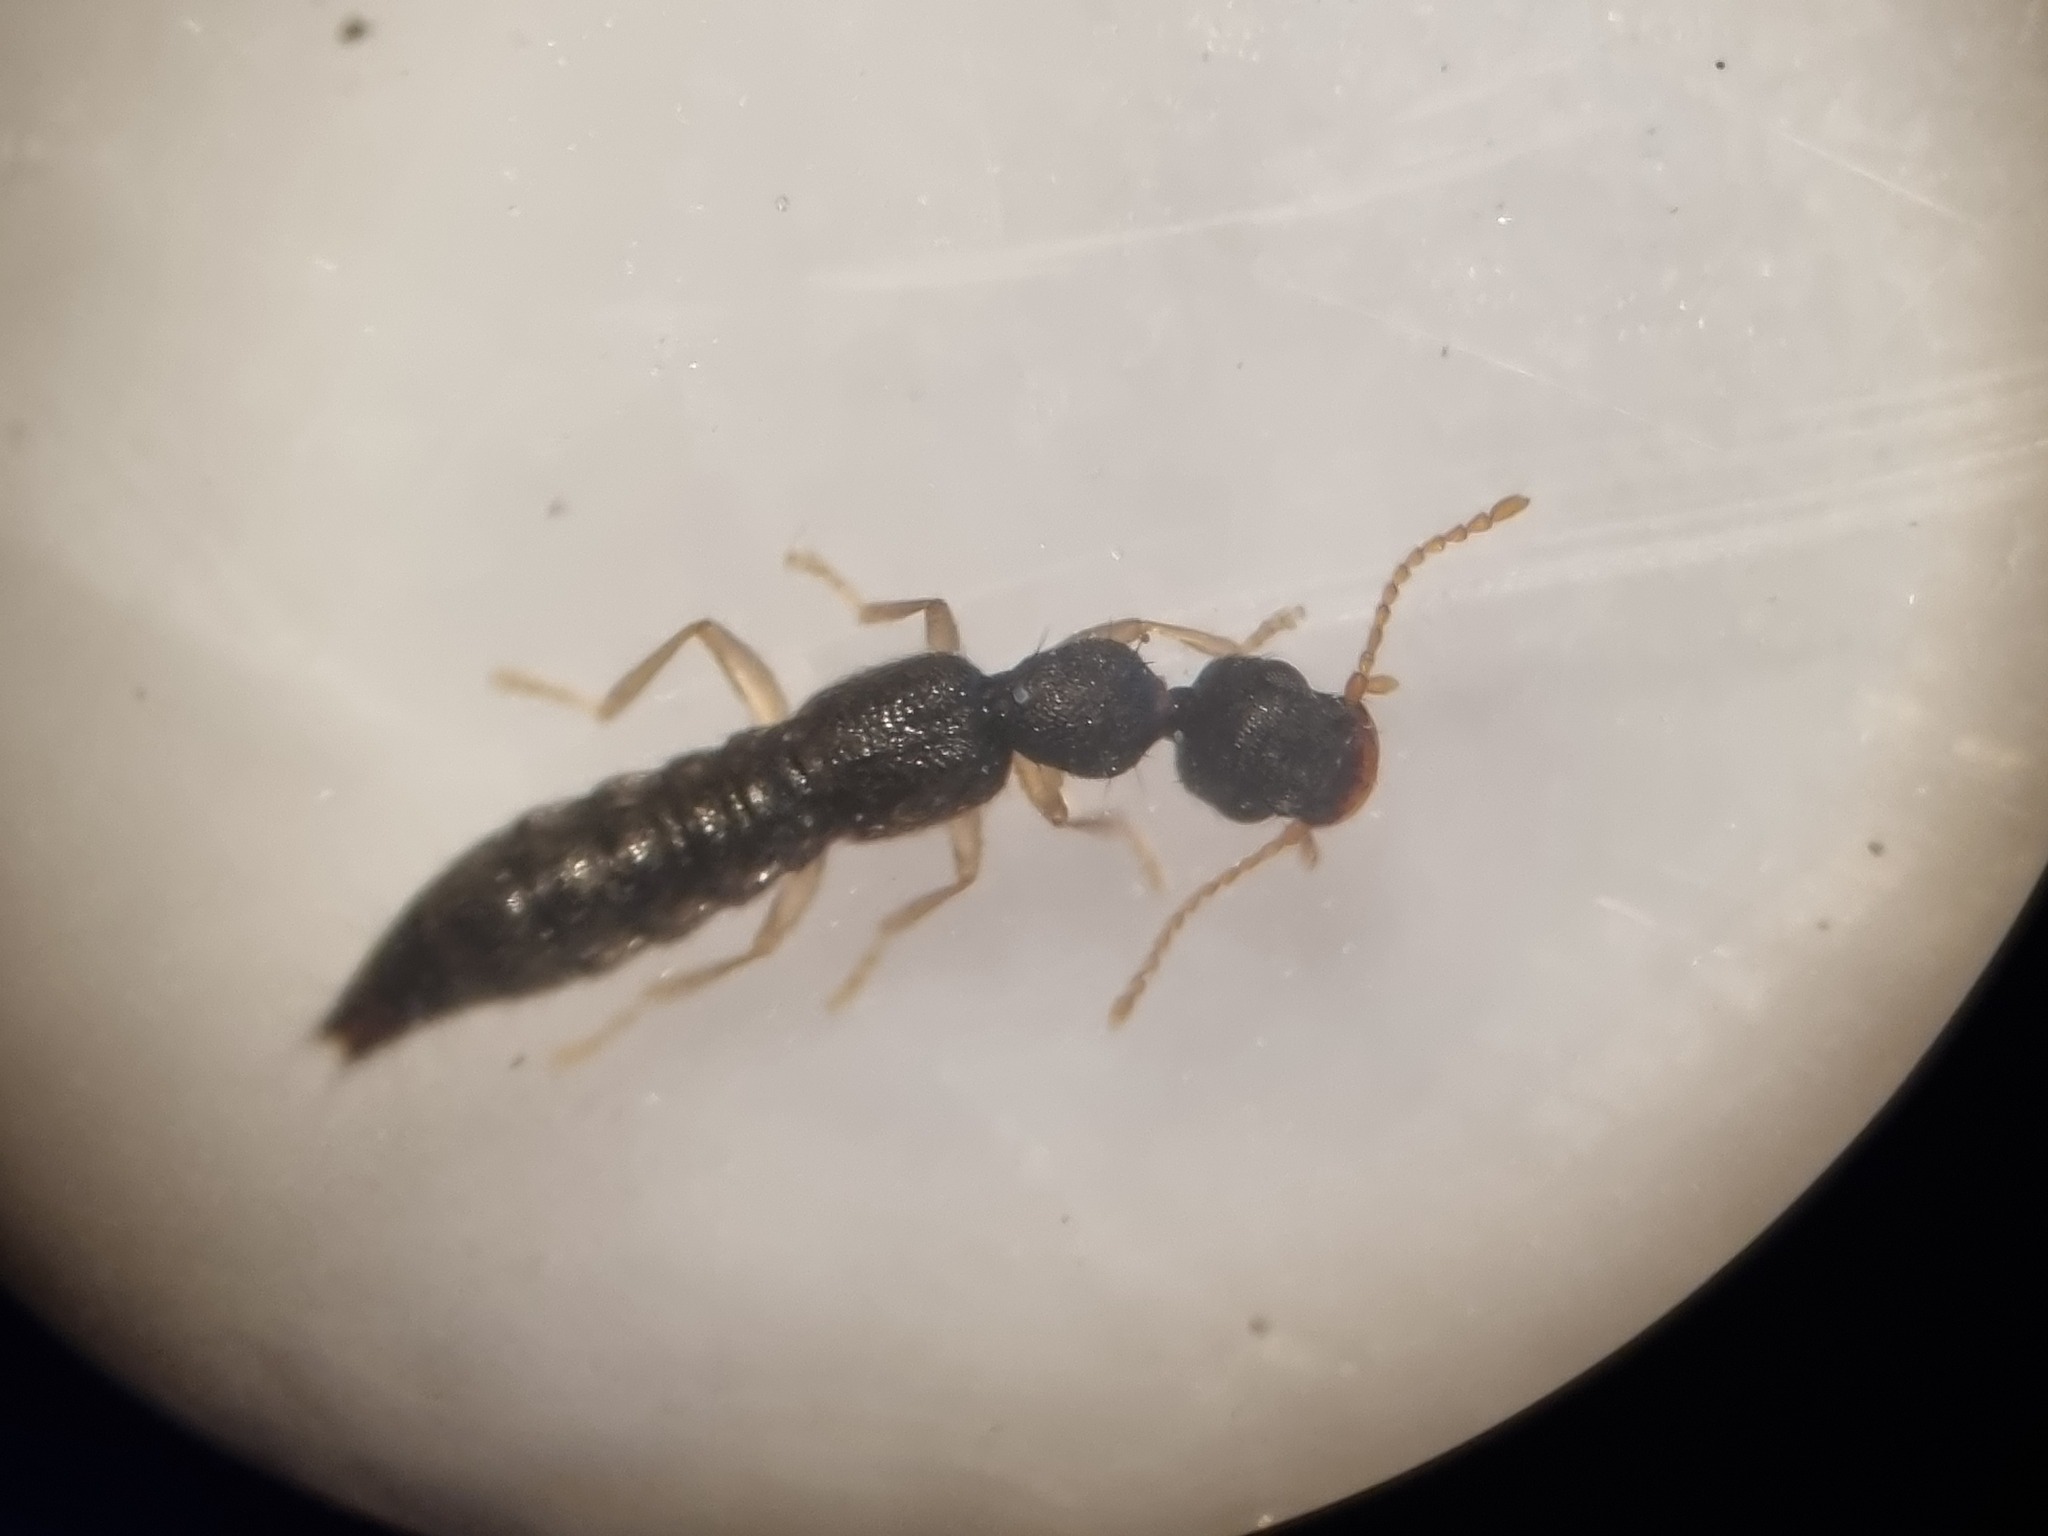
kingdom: Animalia
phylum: Arthropoda
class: Insecta
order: Coleoptera
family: Staphylinidae
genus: Astenus
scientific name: Astenus immaculatus
